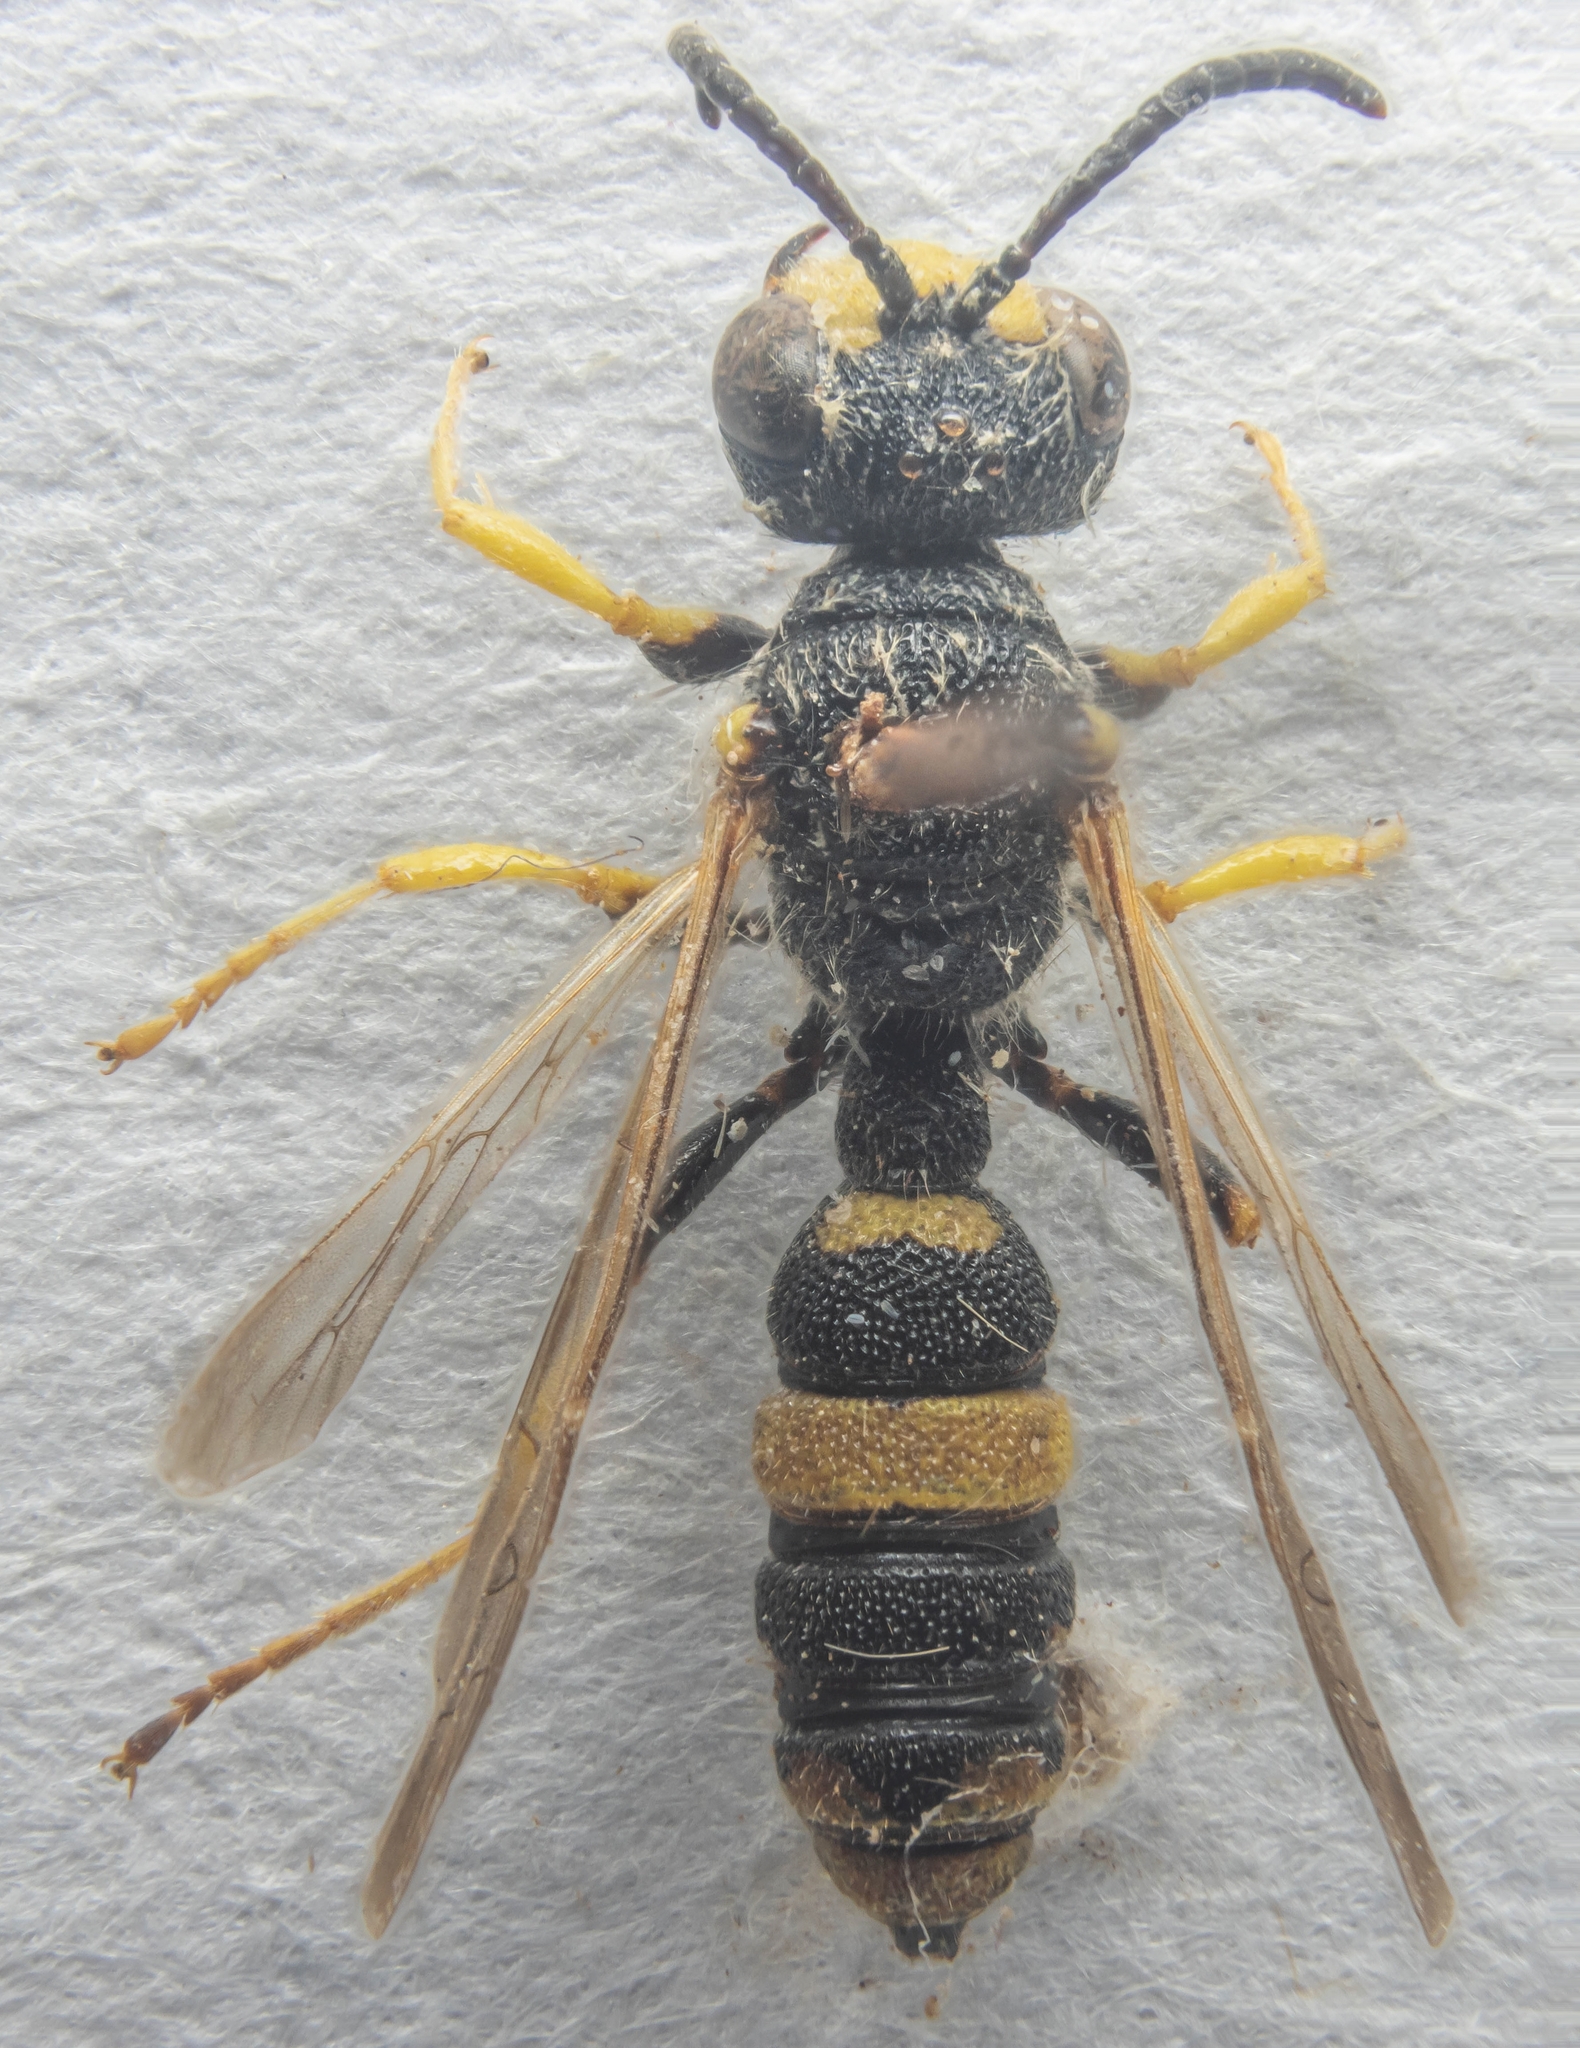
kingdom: Animalia
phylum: Arthropoda
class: Insecta
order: Hymenoptera
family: Crabronidae
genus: Cerceris
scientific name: Cerceris rybyensis
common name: Ornate tailed digger wasp
